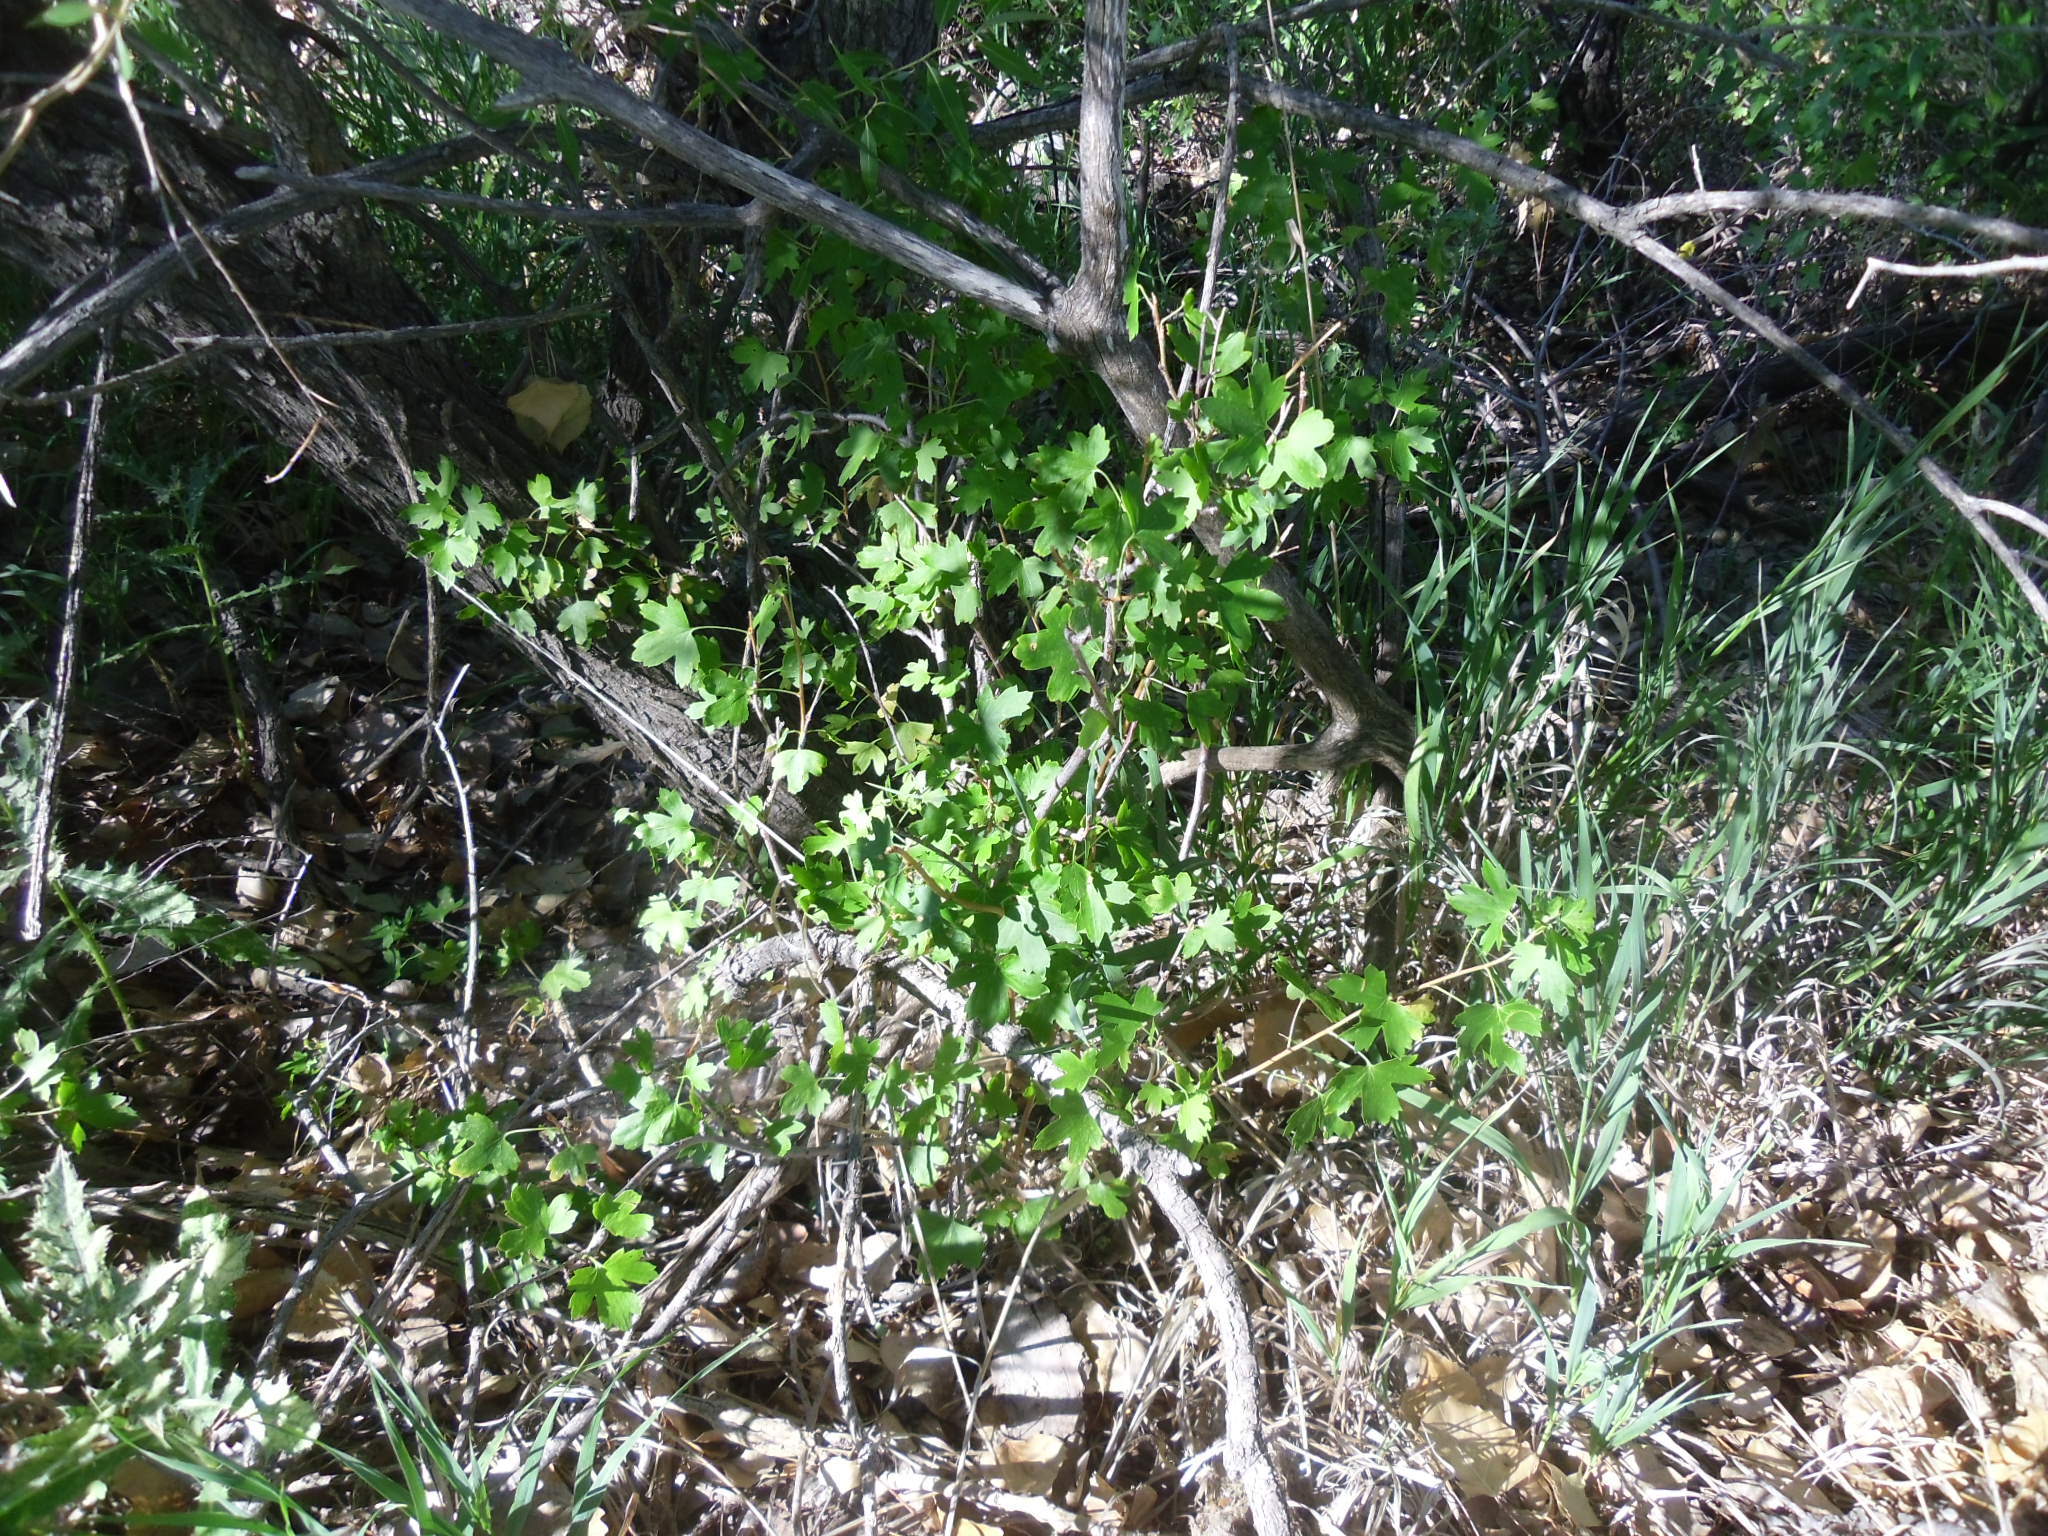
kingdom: Plantae
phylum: Tracheophyta
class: Magnoliopsida
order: Saxifragales
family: Grossulariaceae
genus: Ribes
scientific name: Ribes aureum
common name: Golden currant
